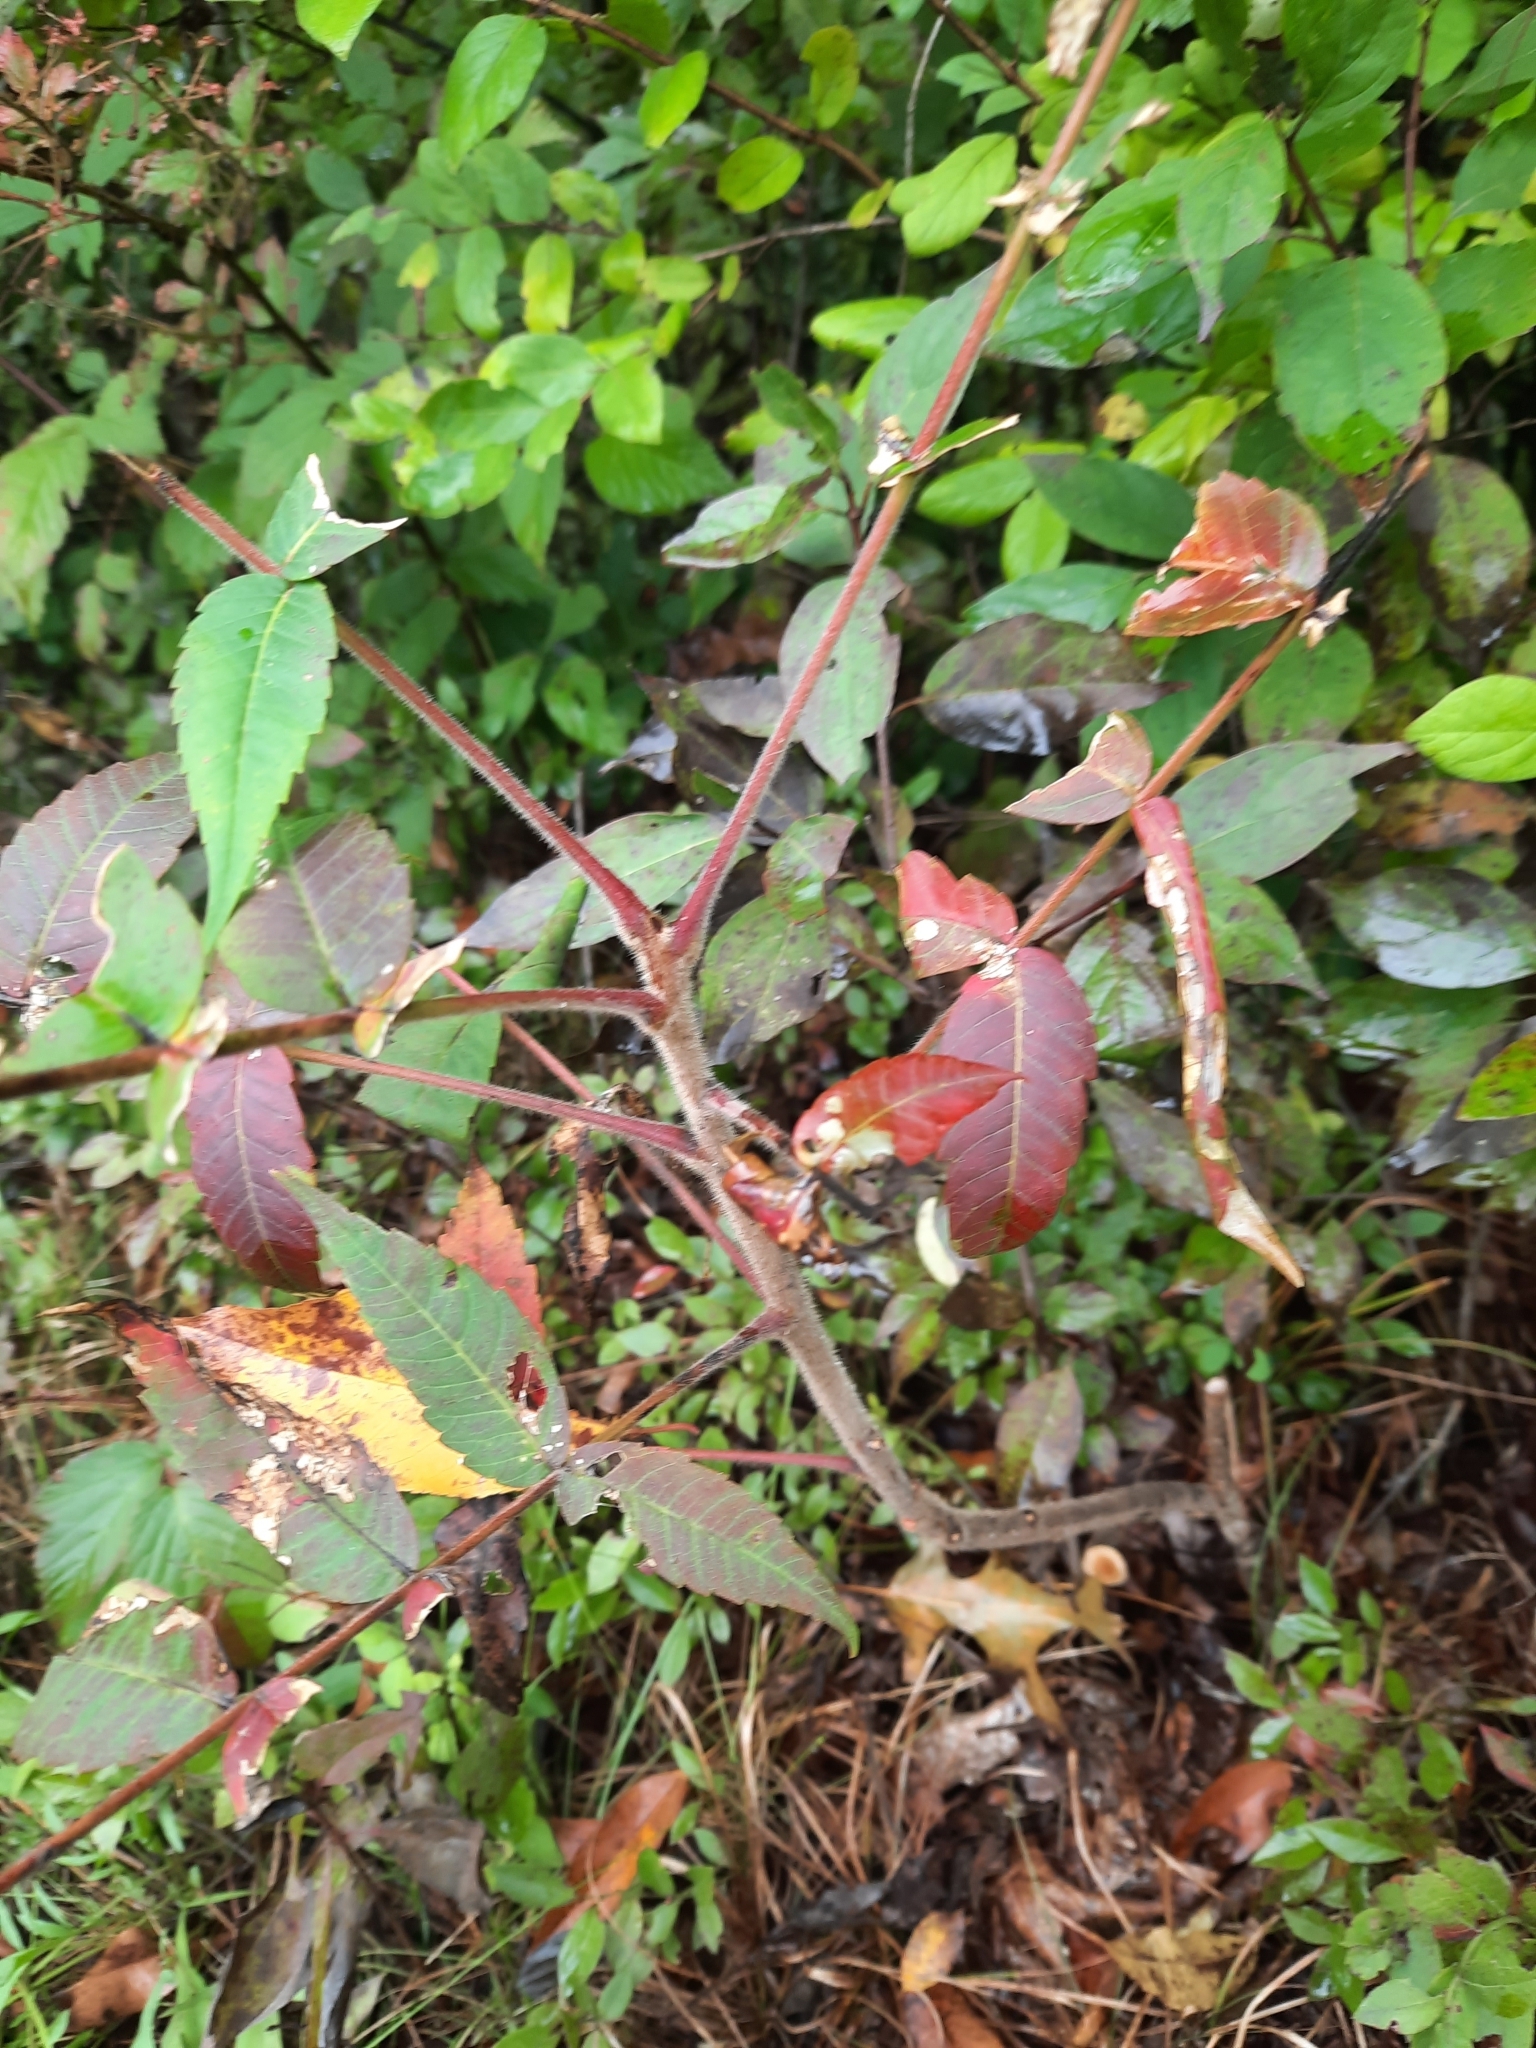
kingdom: Plantae
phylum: Tracheophyta
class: Magnoliopsida
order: Sapindales
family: Anacardiaceae
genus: Rhus
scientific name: Rhus typhina
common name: Staghorn sumac
